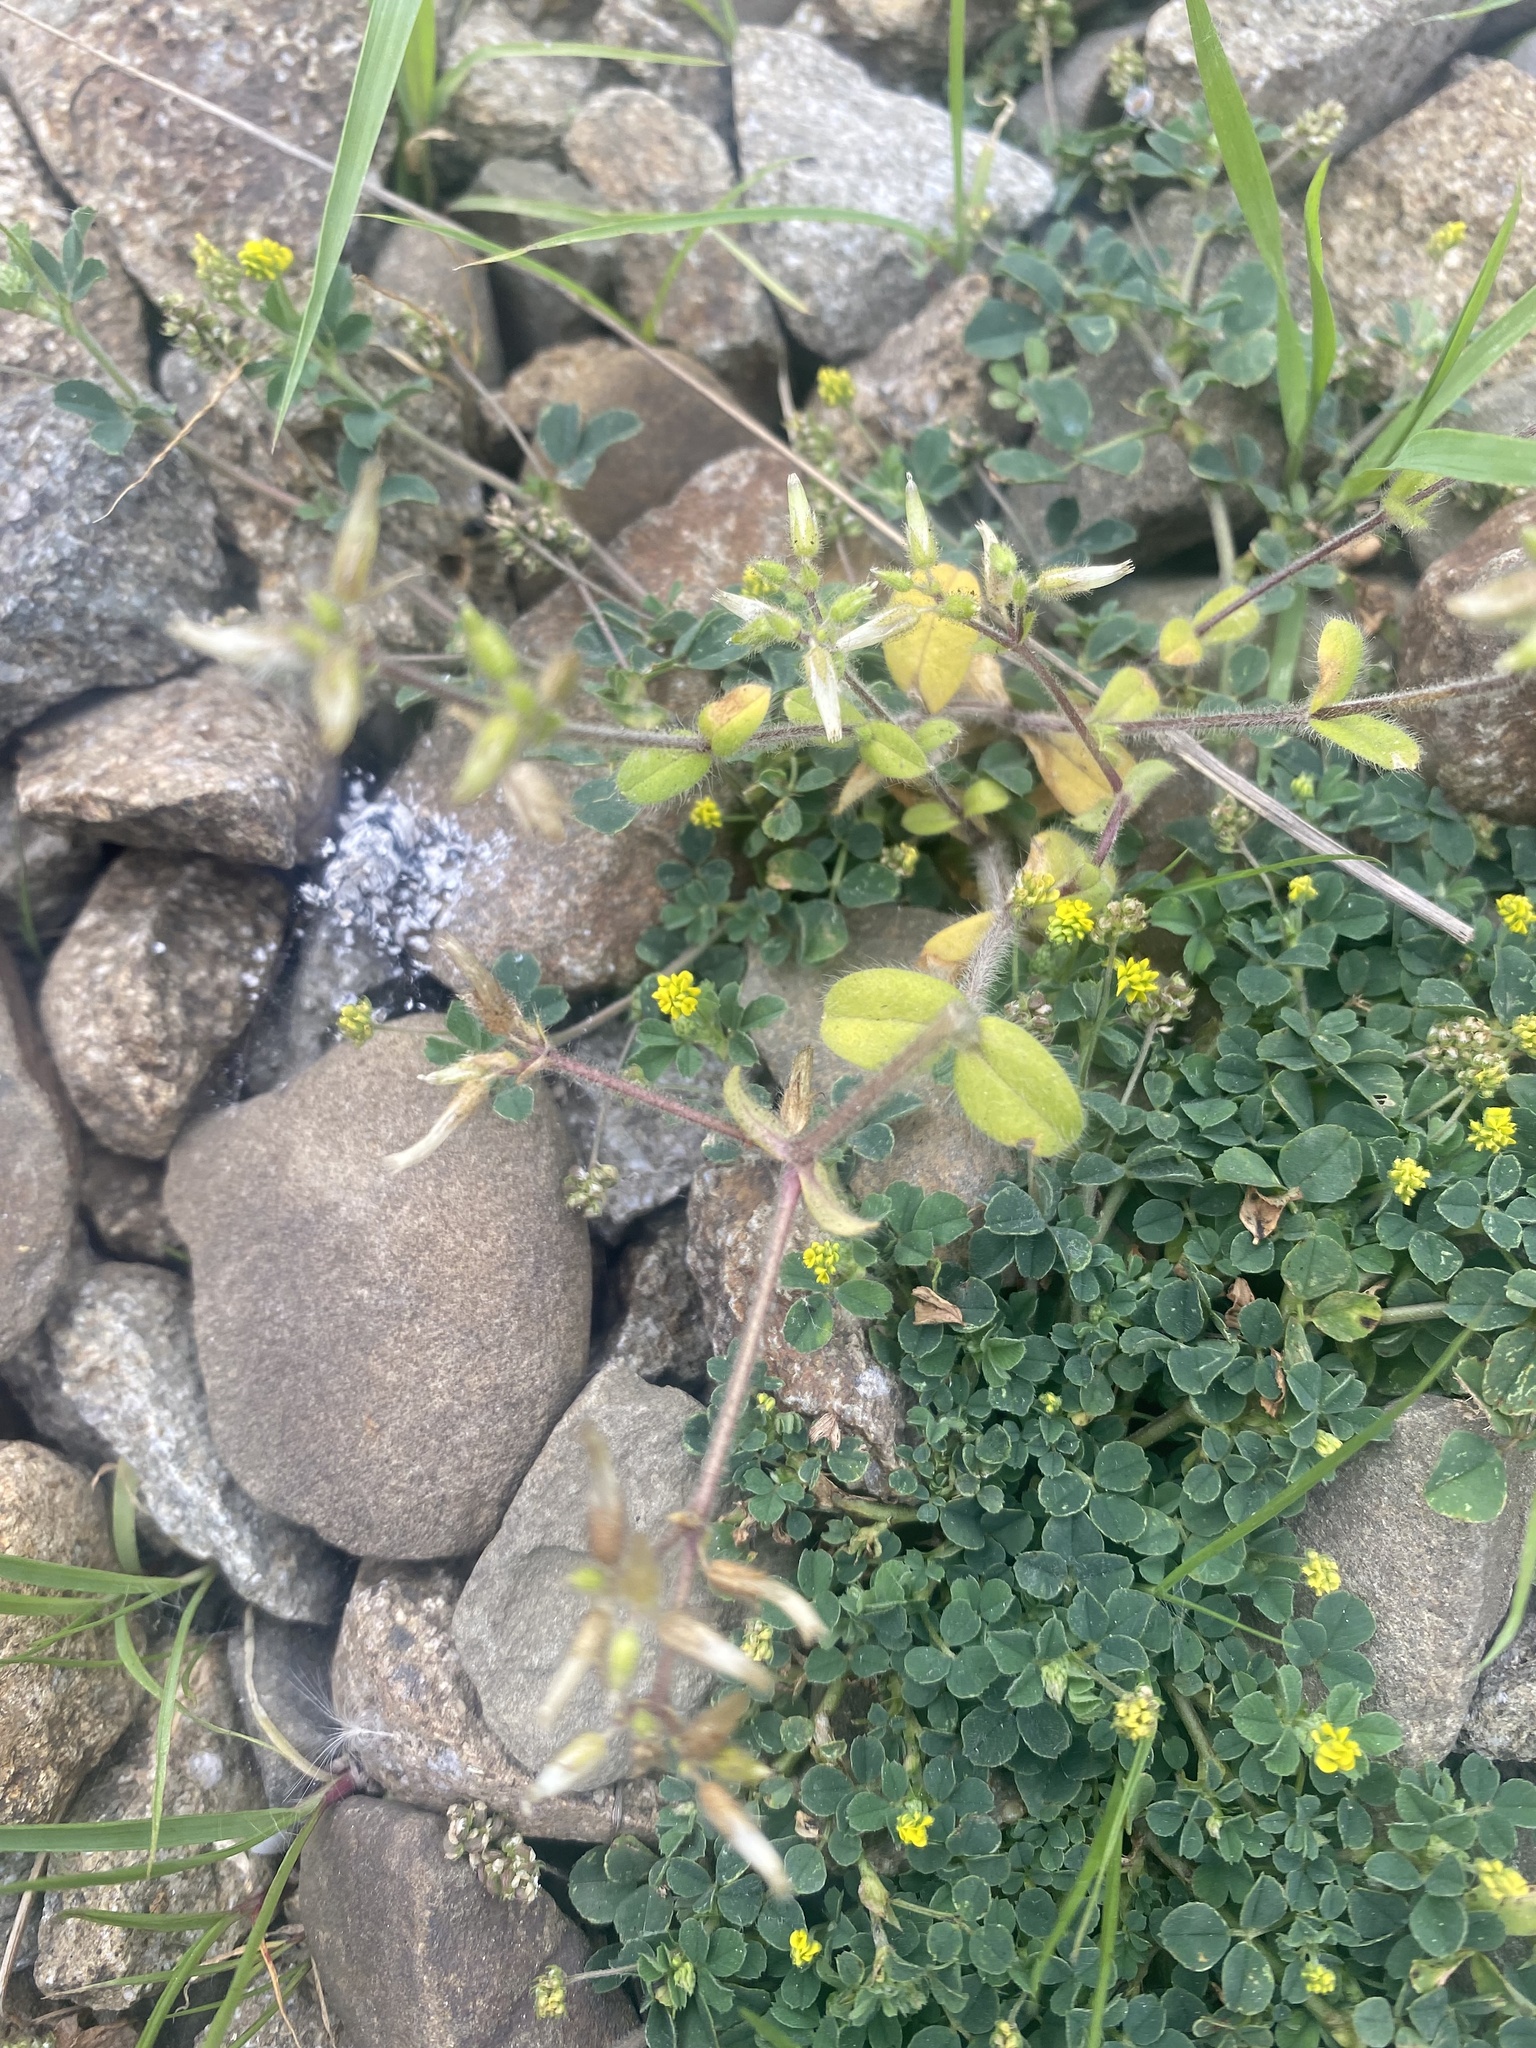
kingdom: Plantae
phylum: Tracheophyta
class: Magnoliopsida
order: Fabales
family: Fabaceae
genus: Medicago
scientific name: Medicago lupulina
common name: Black medick
